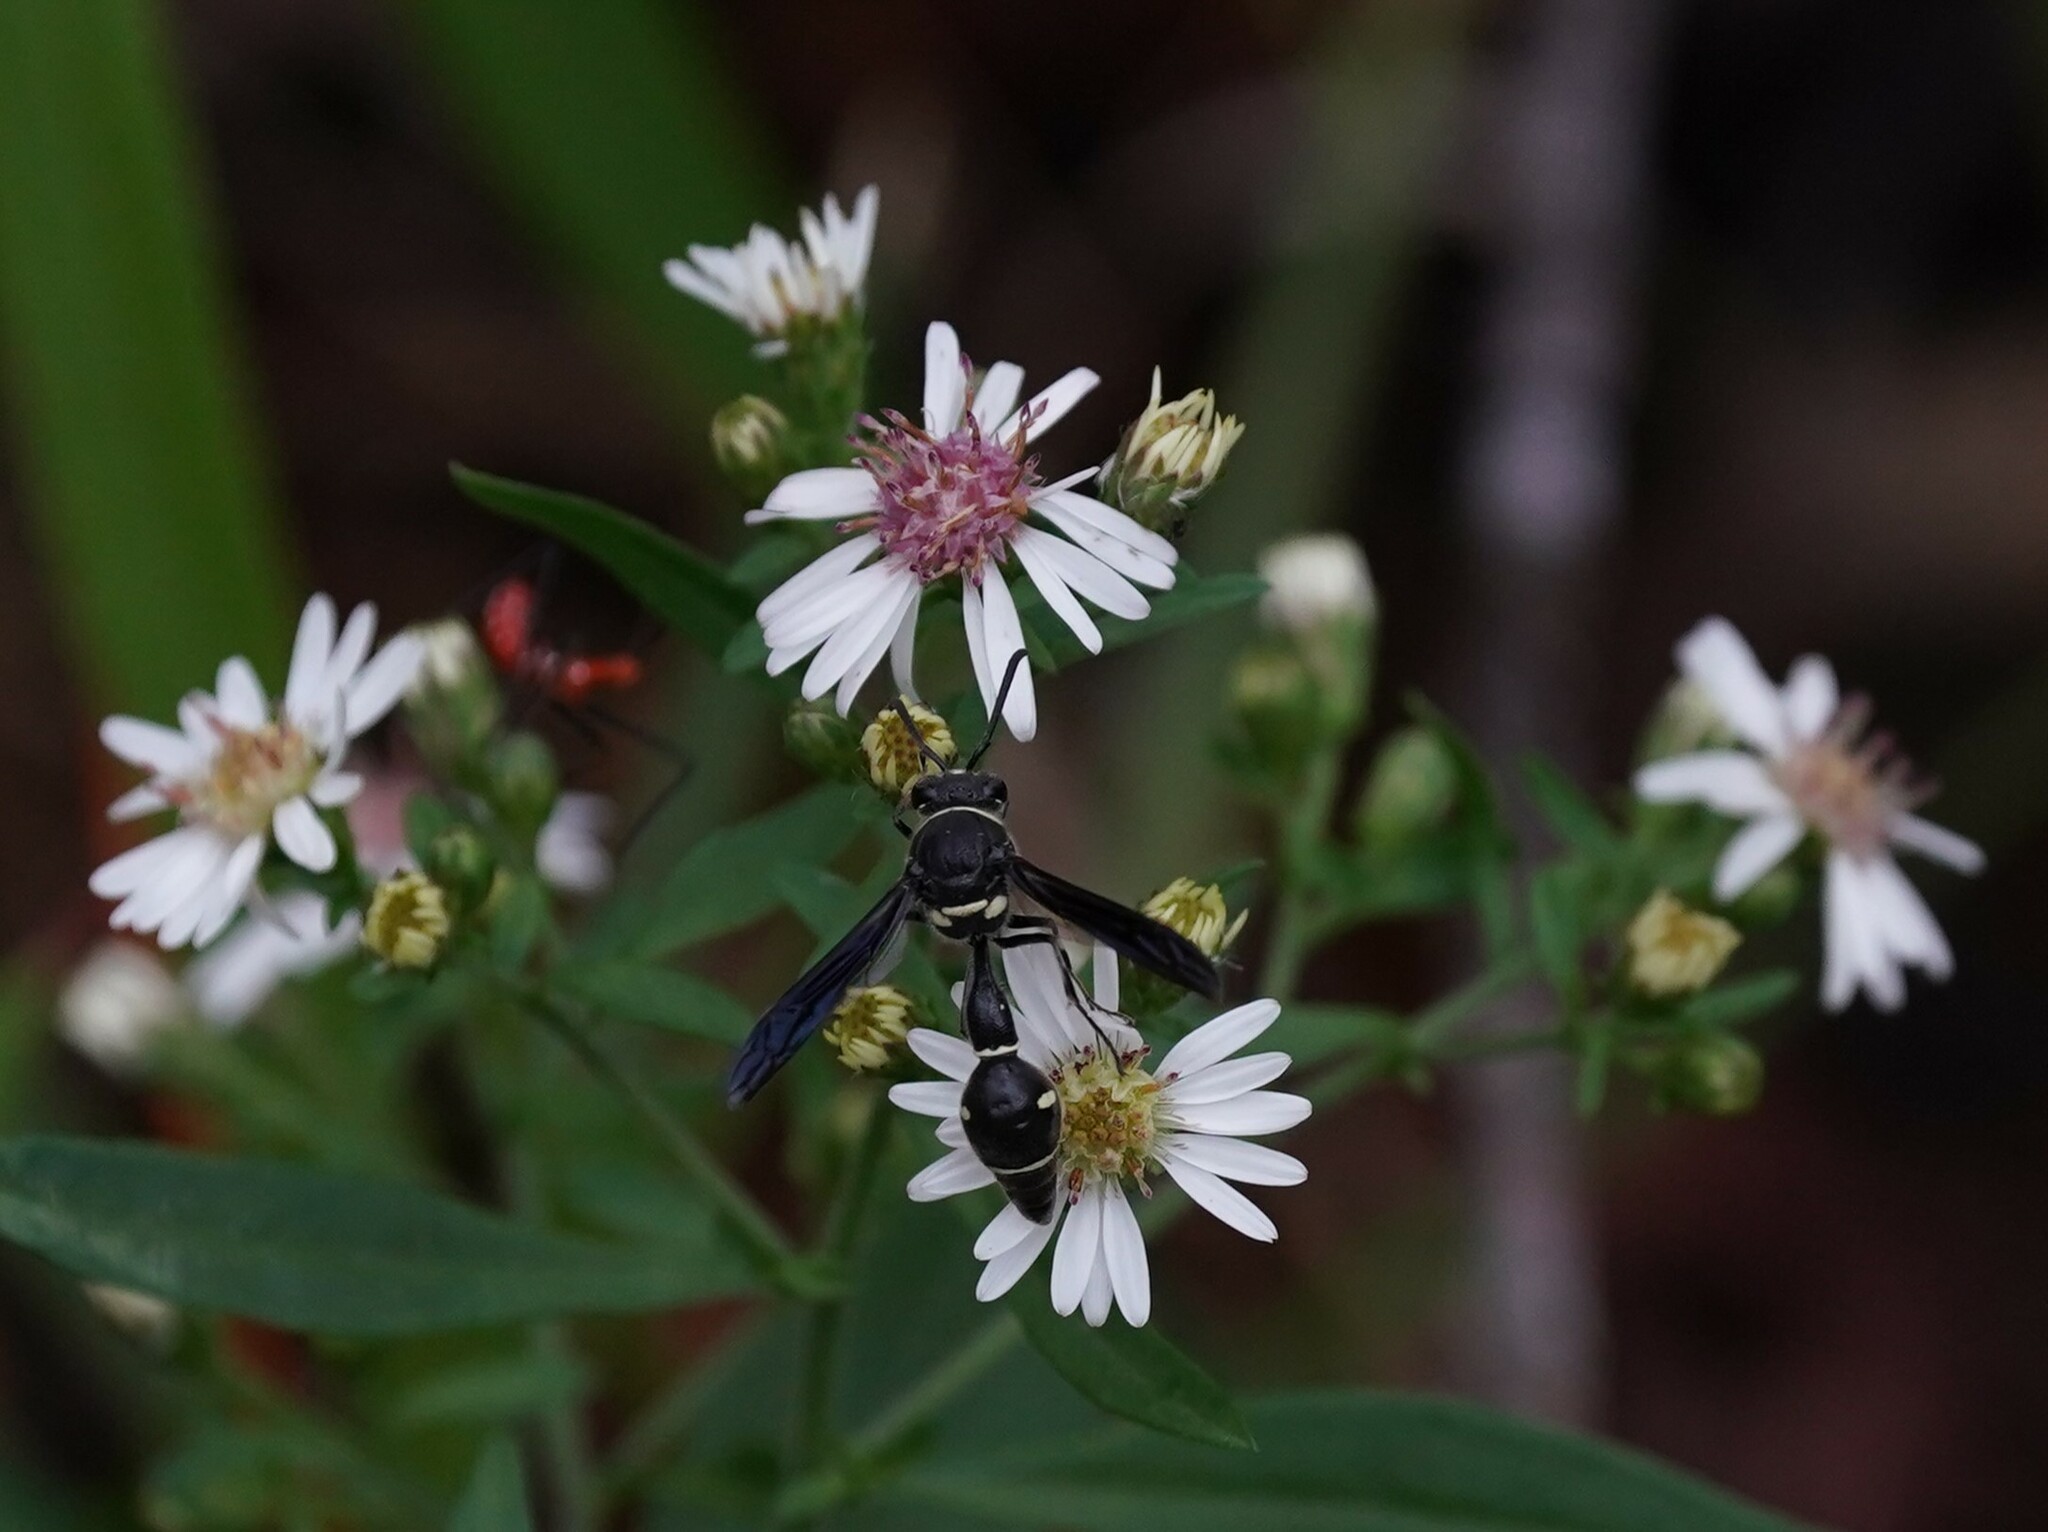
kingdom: Animalia
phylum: Arthropoda
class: Insecta
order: Hymenoptera
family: Vespidae
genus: Eumenes
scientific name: Eumenes fraternus
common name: Fraternal potter wasp
